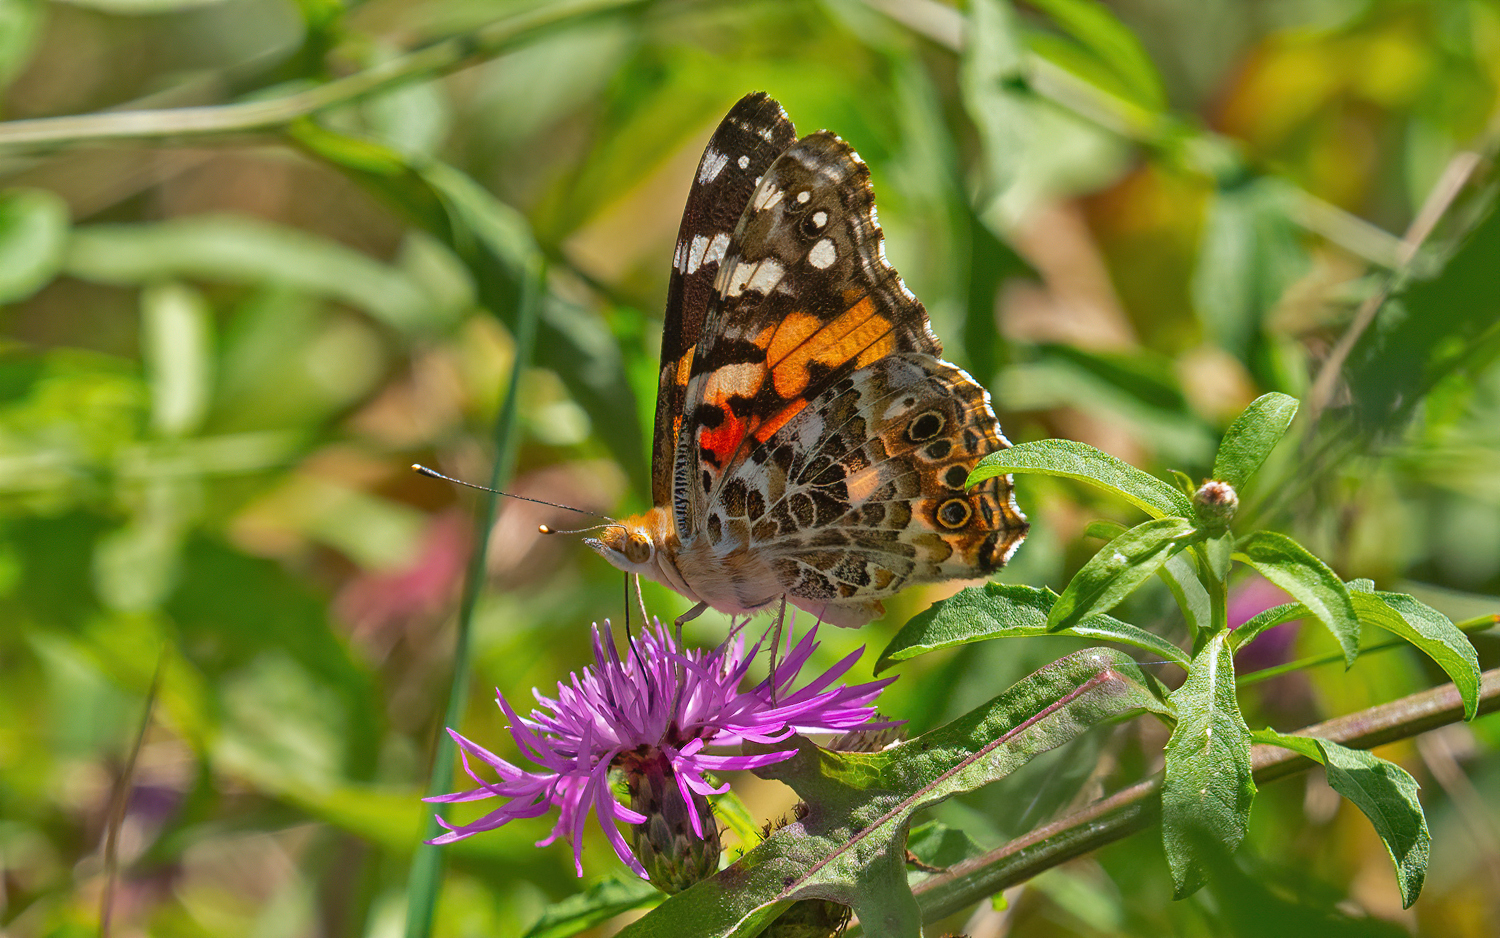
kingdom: Animalia
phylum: Arthropoda
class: Insecta
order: Lepidoptera
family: Nymphalidae
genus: Vanessa
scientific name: Vanessa cardui
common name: Painted lady
